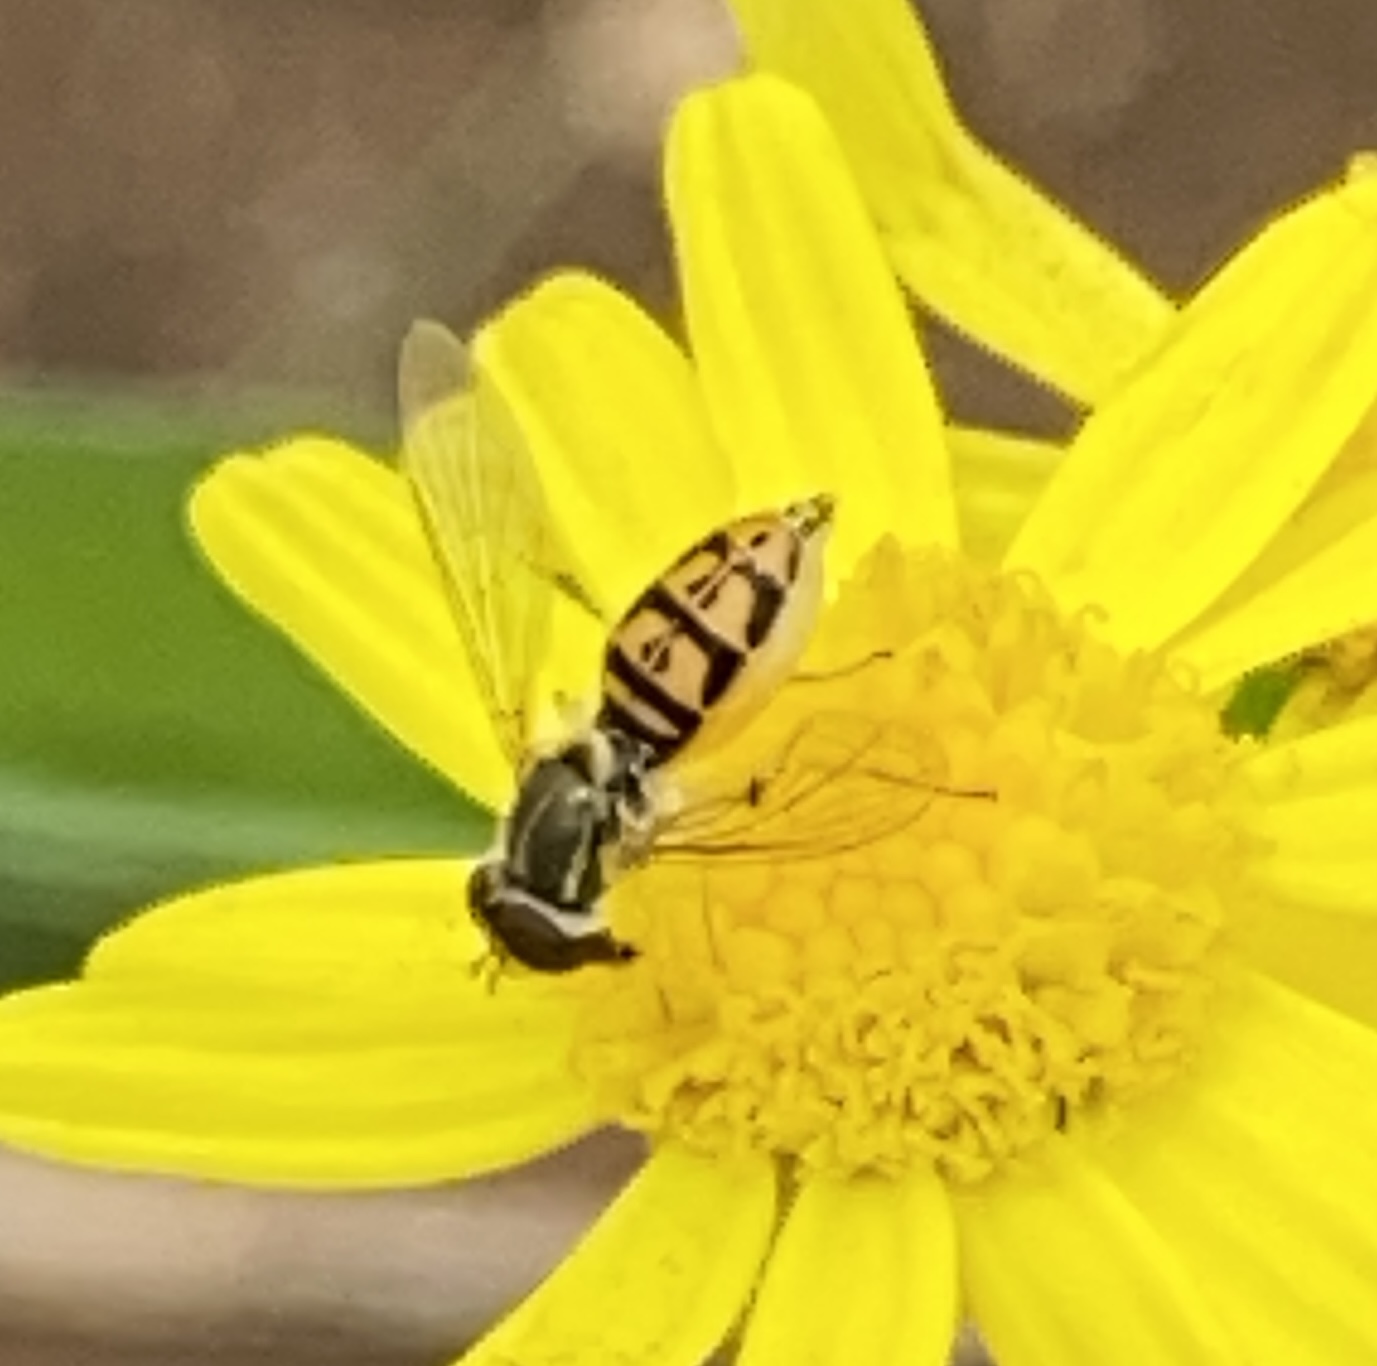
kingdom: Animalia
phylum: Arthropoda
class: Insecta
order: Diptera
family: Syrphidae
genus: Toxomerus
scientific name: Toxomerus marginatus
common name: Syrphid fly
